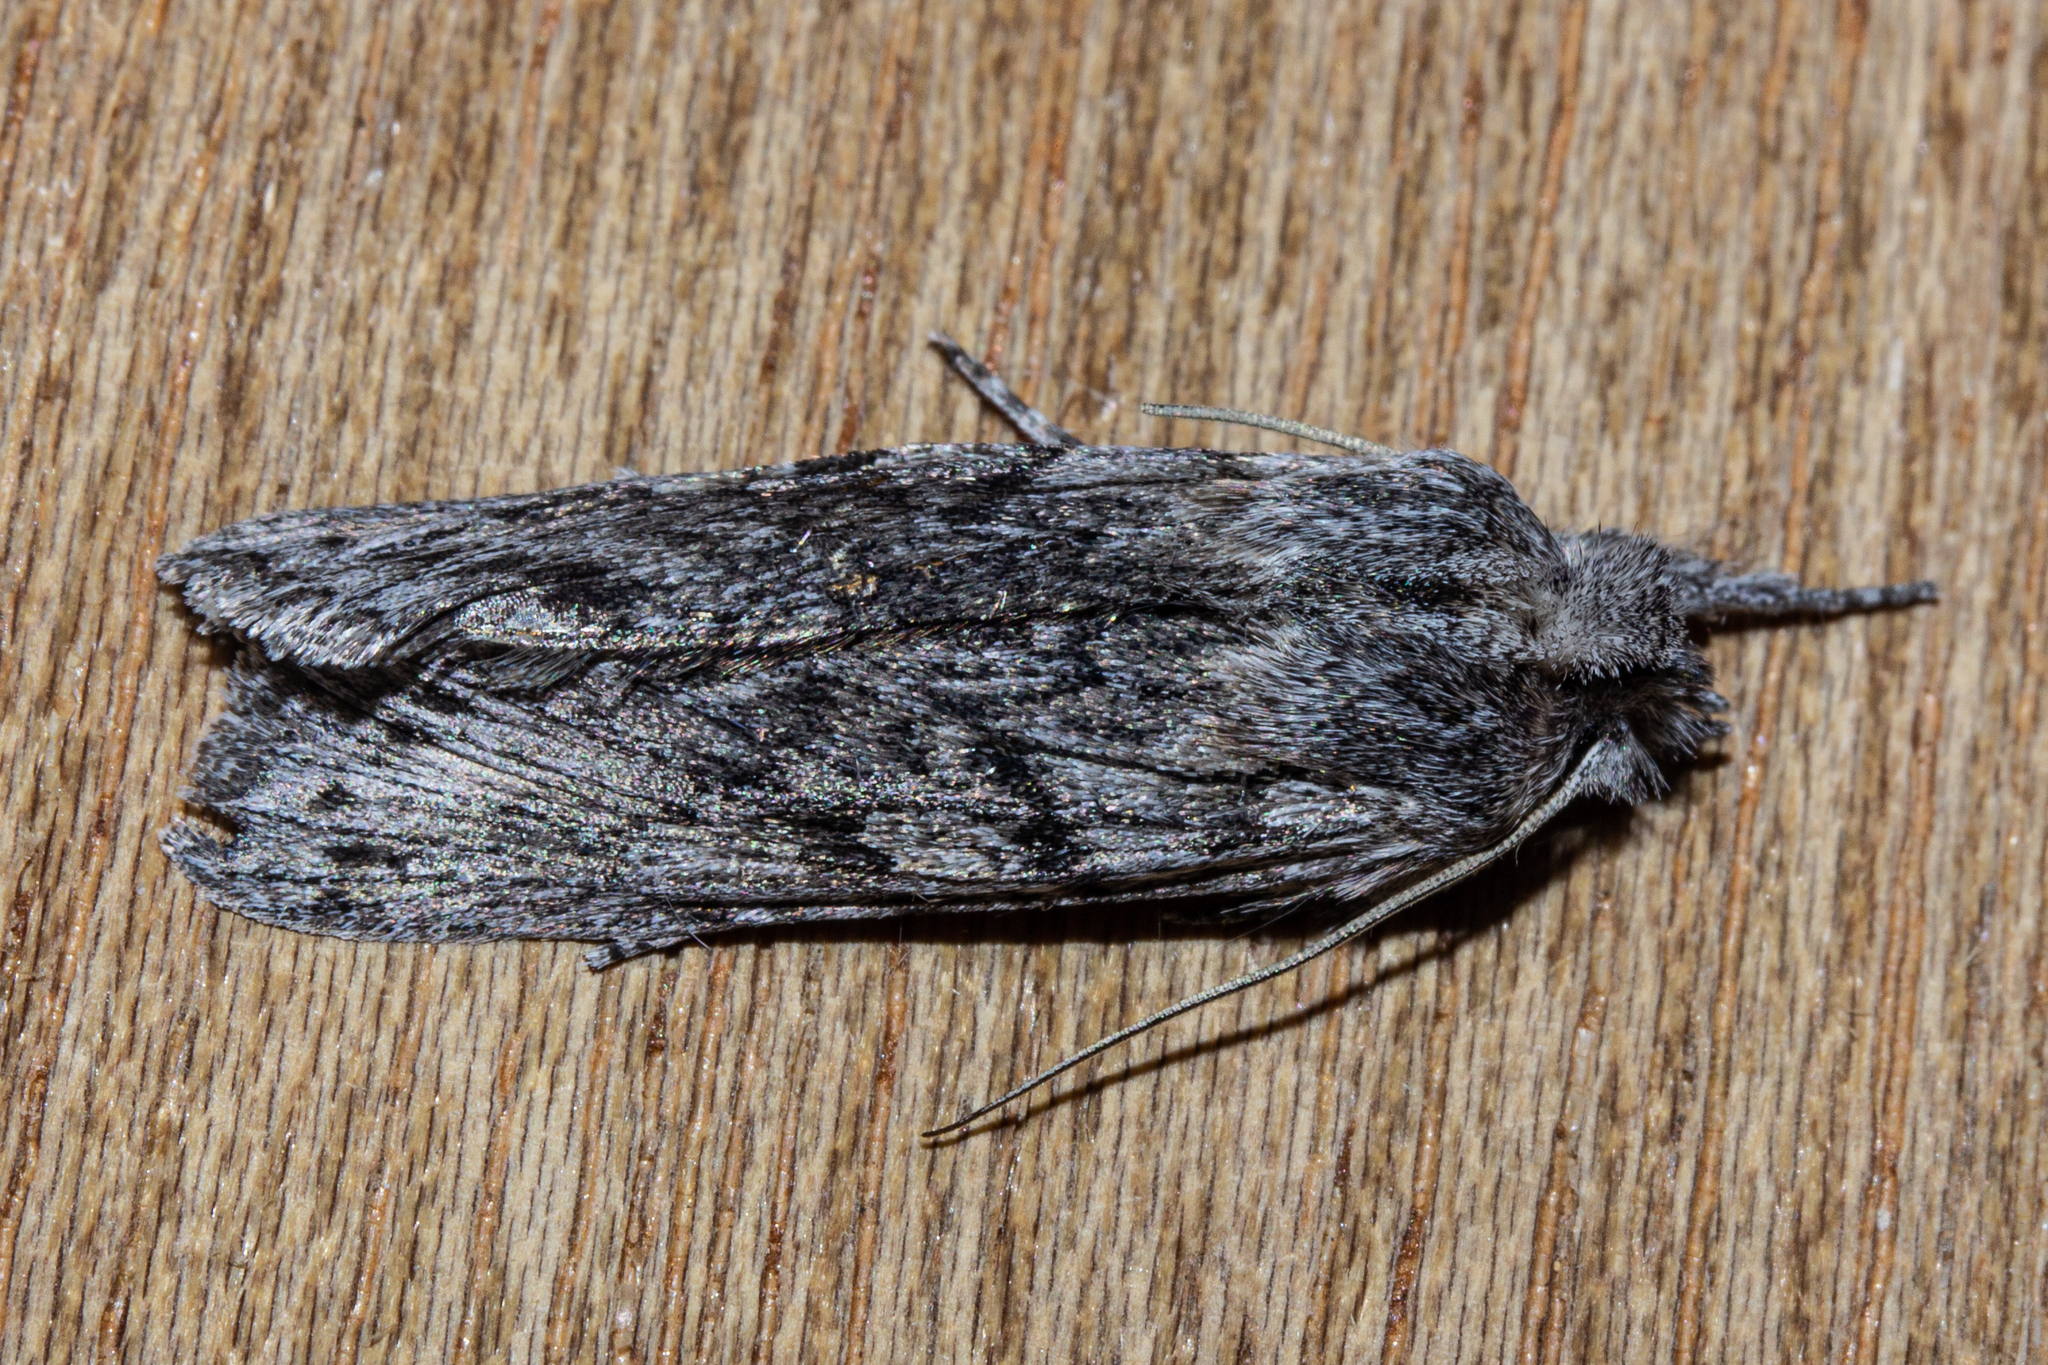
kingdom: Animalia
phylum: Arthropoda
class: Insecta
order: Lepidoptera
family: Noctuidae
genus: Physetica
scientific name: Physetica phricias
